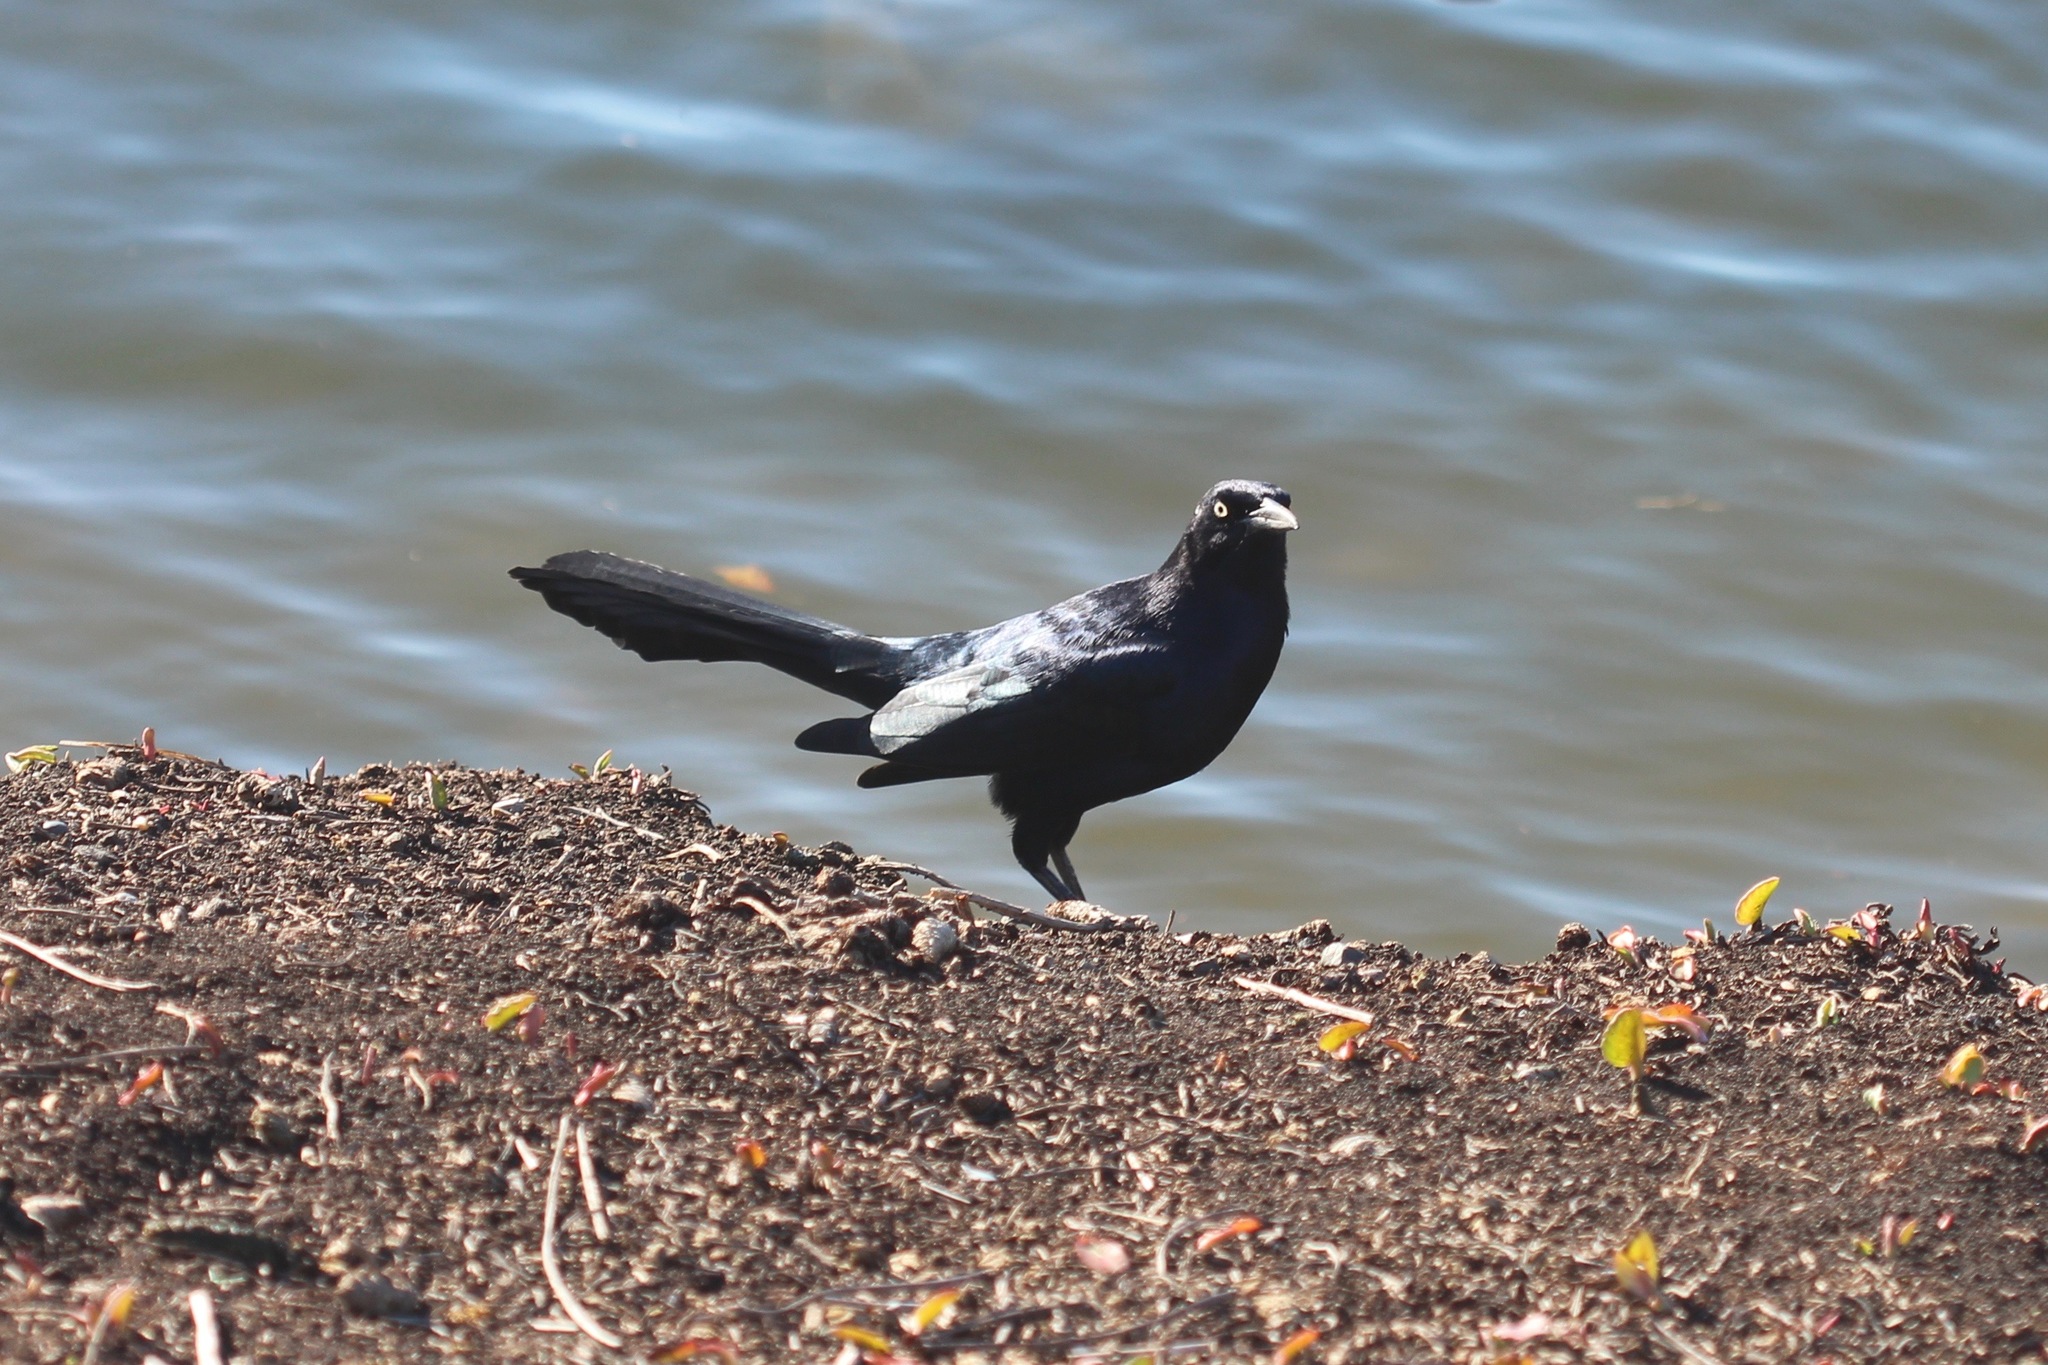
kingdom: Animalia
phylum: Chordata
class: Aves
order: Passeriformes
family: Icteridae
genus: Quiscalus
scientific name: Quiscalus mexicanus
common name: Great-tailed grackle
